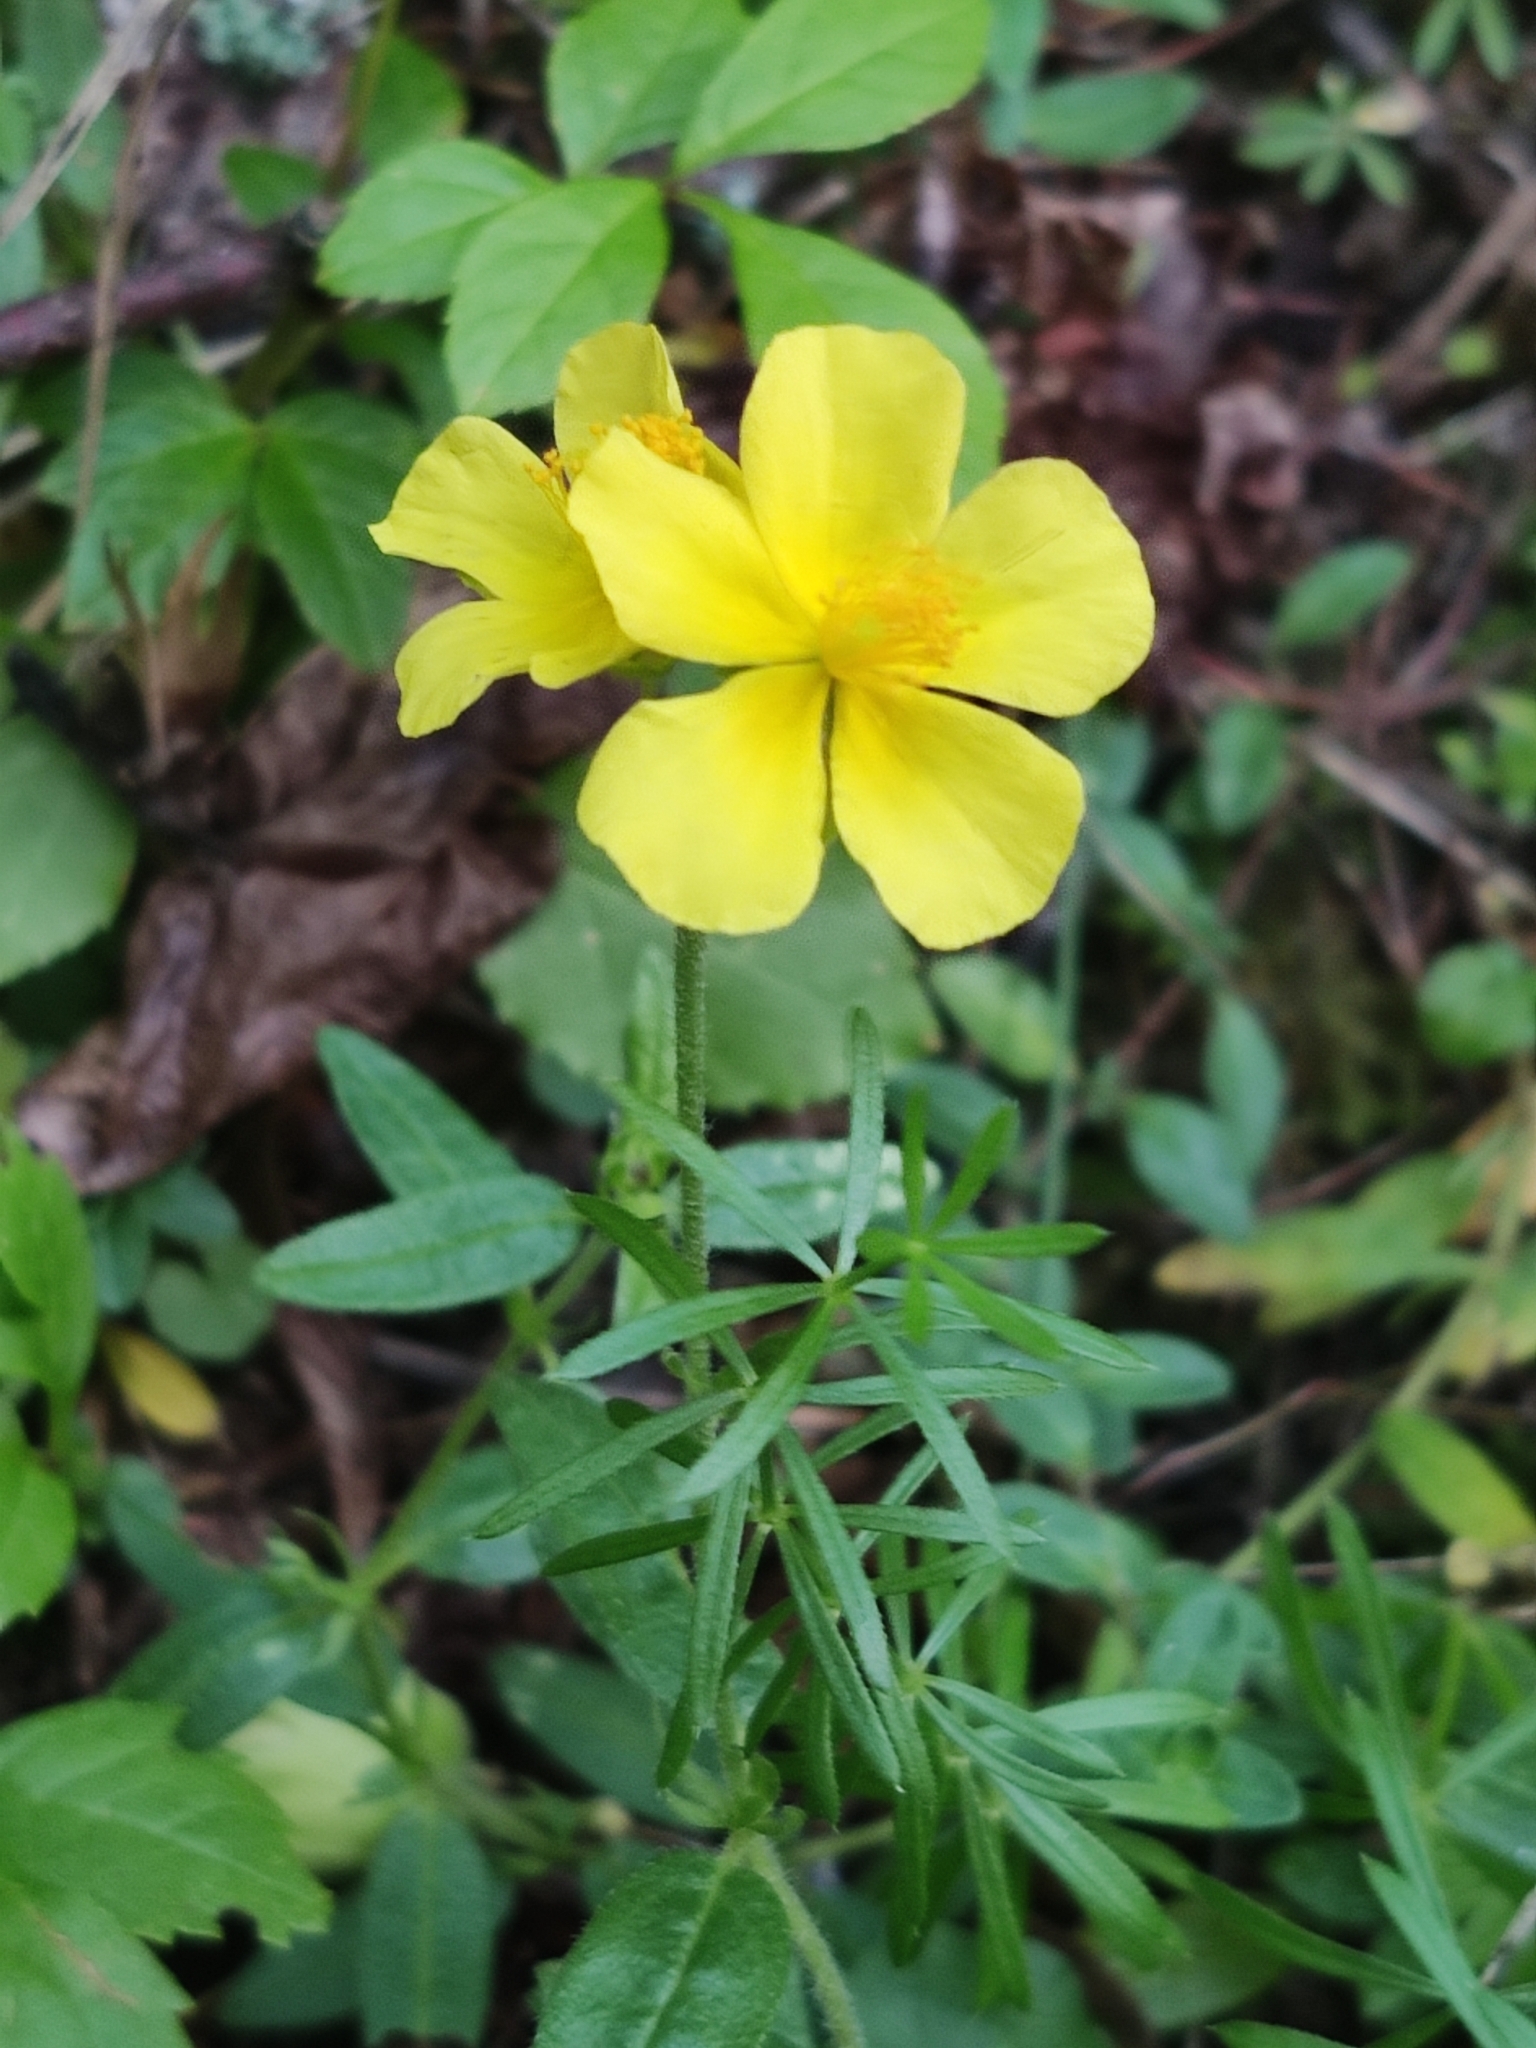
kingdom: Plantae
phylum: Tracheophyta
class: Magnoliopsida
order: Malvales
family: Cistaceae
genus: Helianthemum
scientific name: Helianthemum nummularium
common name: Common rock-rose
